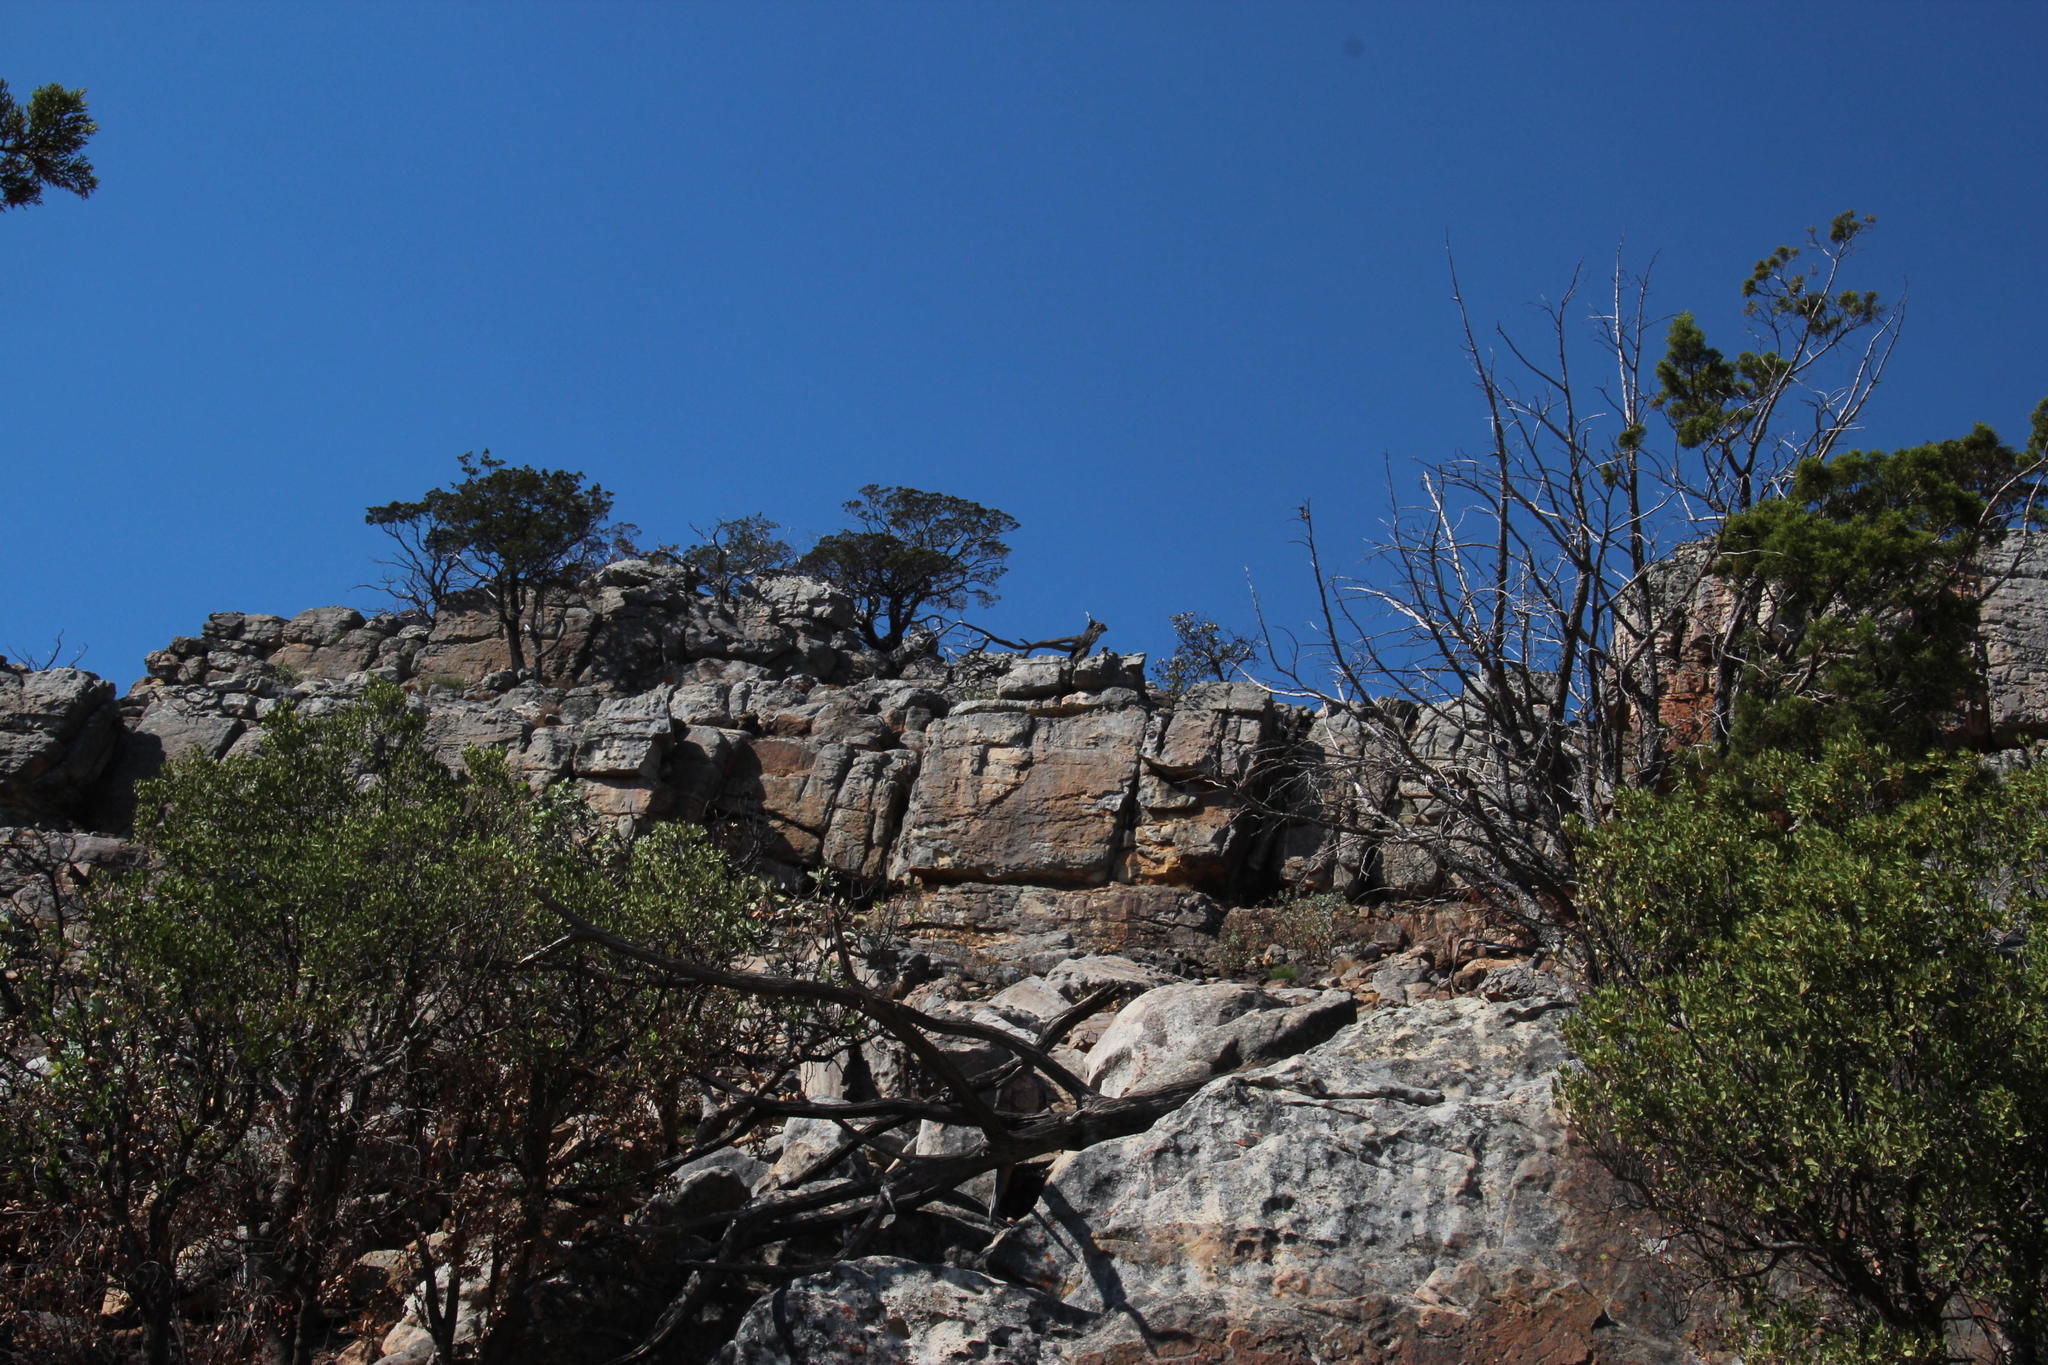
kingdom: Plantae
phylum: Tracheophyta
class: Pinopsida
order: Pinales
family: Cupressaceae
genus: Widdringtonia
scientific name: Widdringtonia nodiflora
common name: Cape cypress
